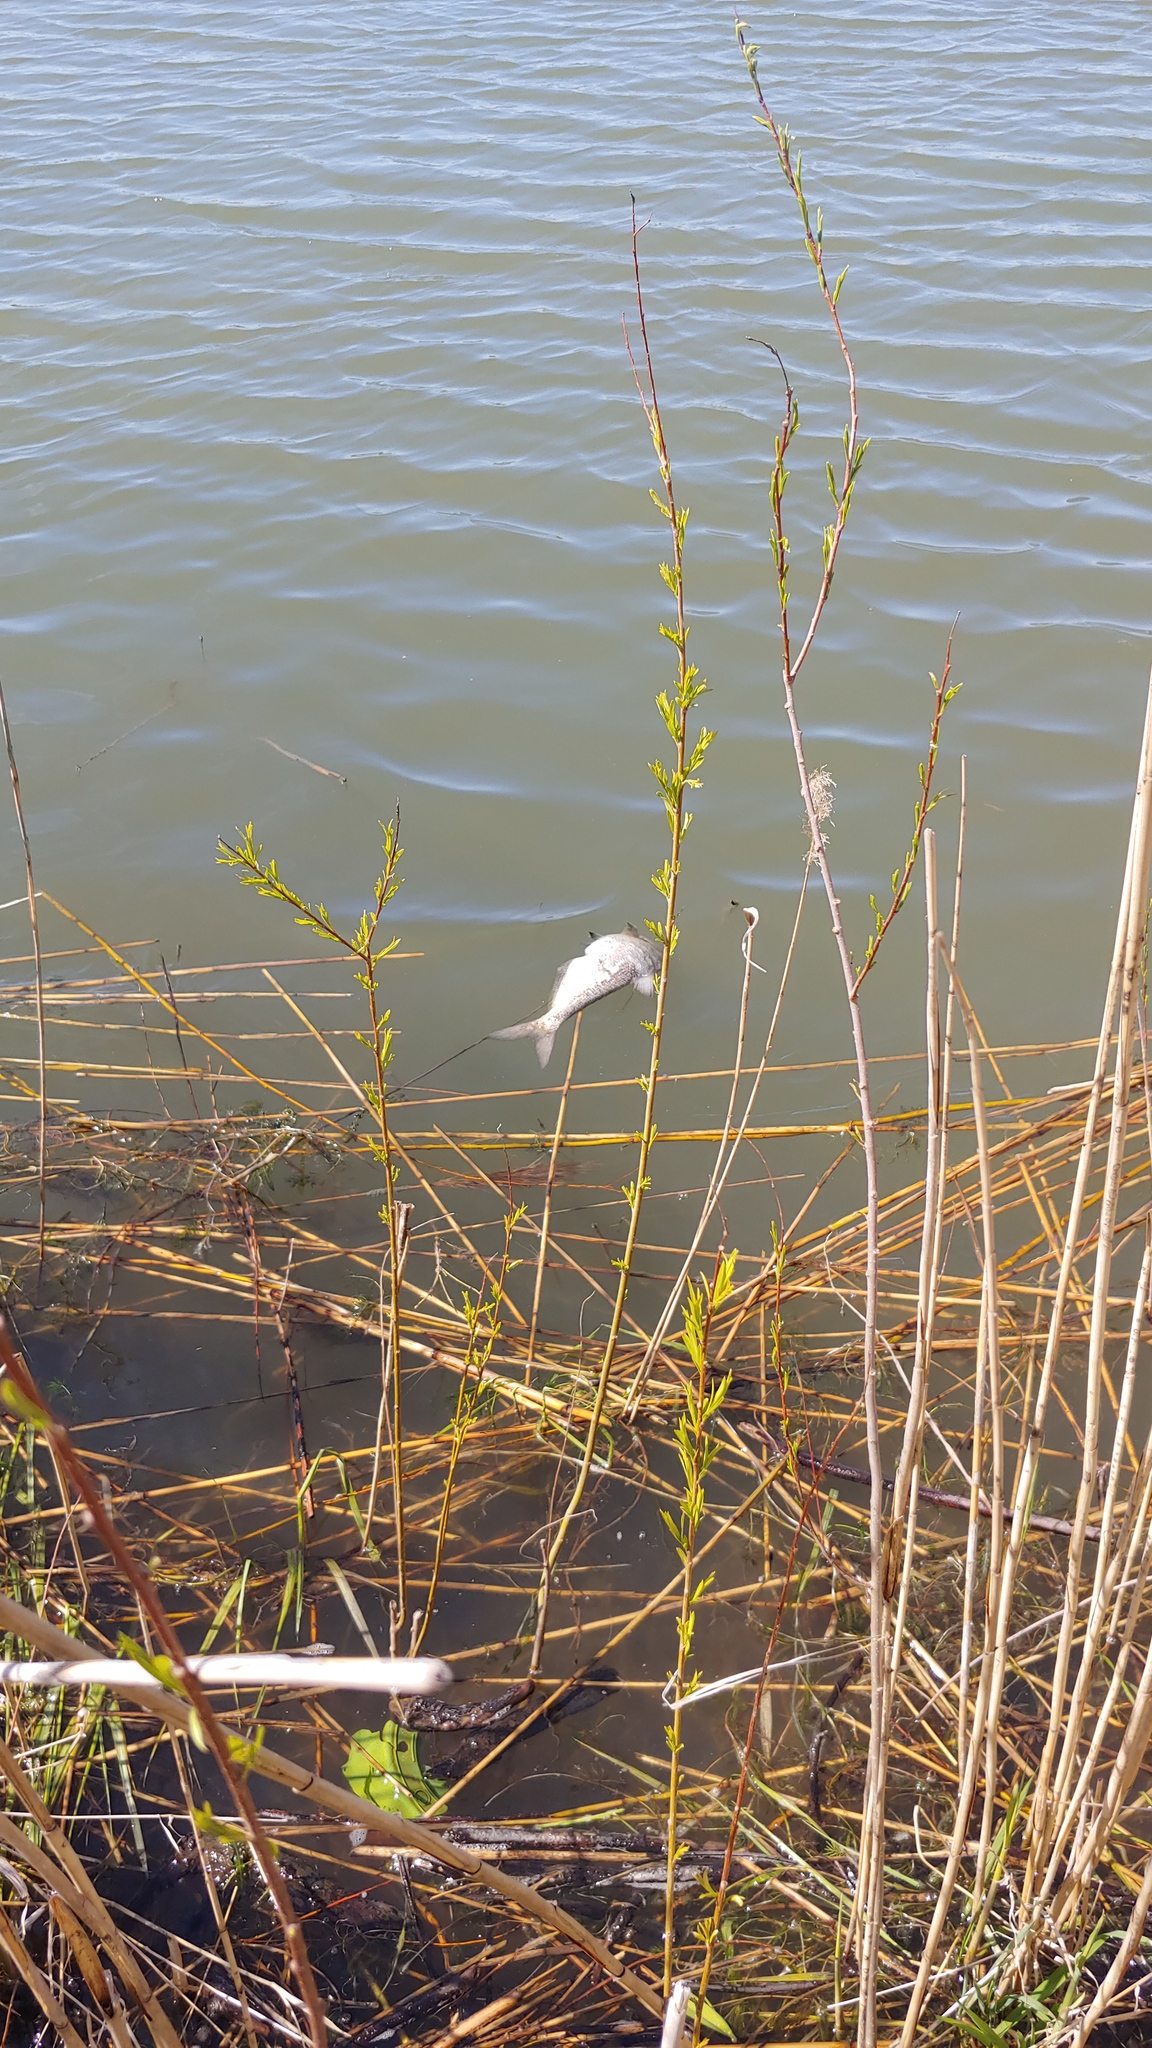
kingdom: Animalia
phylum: Chordata
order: Clupeiformes
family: Clupeidae
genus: Dorosoma
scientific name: Dorosoma cepedianum
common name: Gizzard shad
